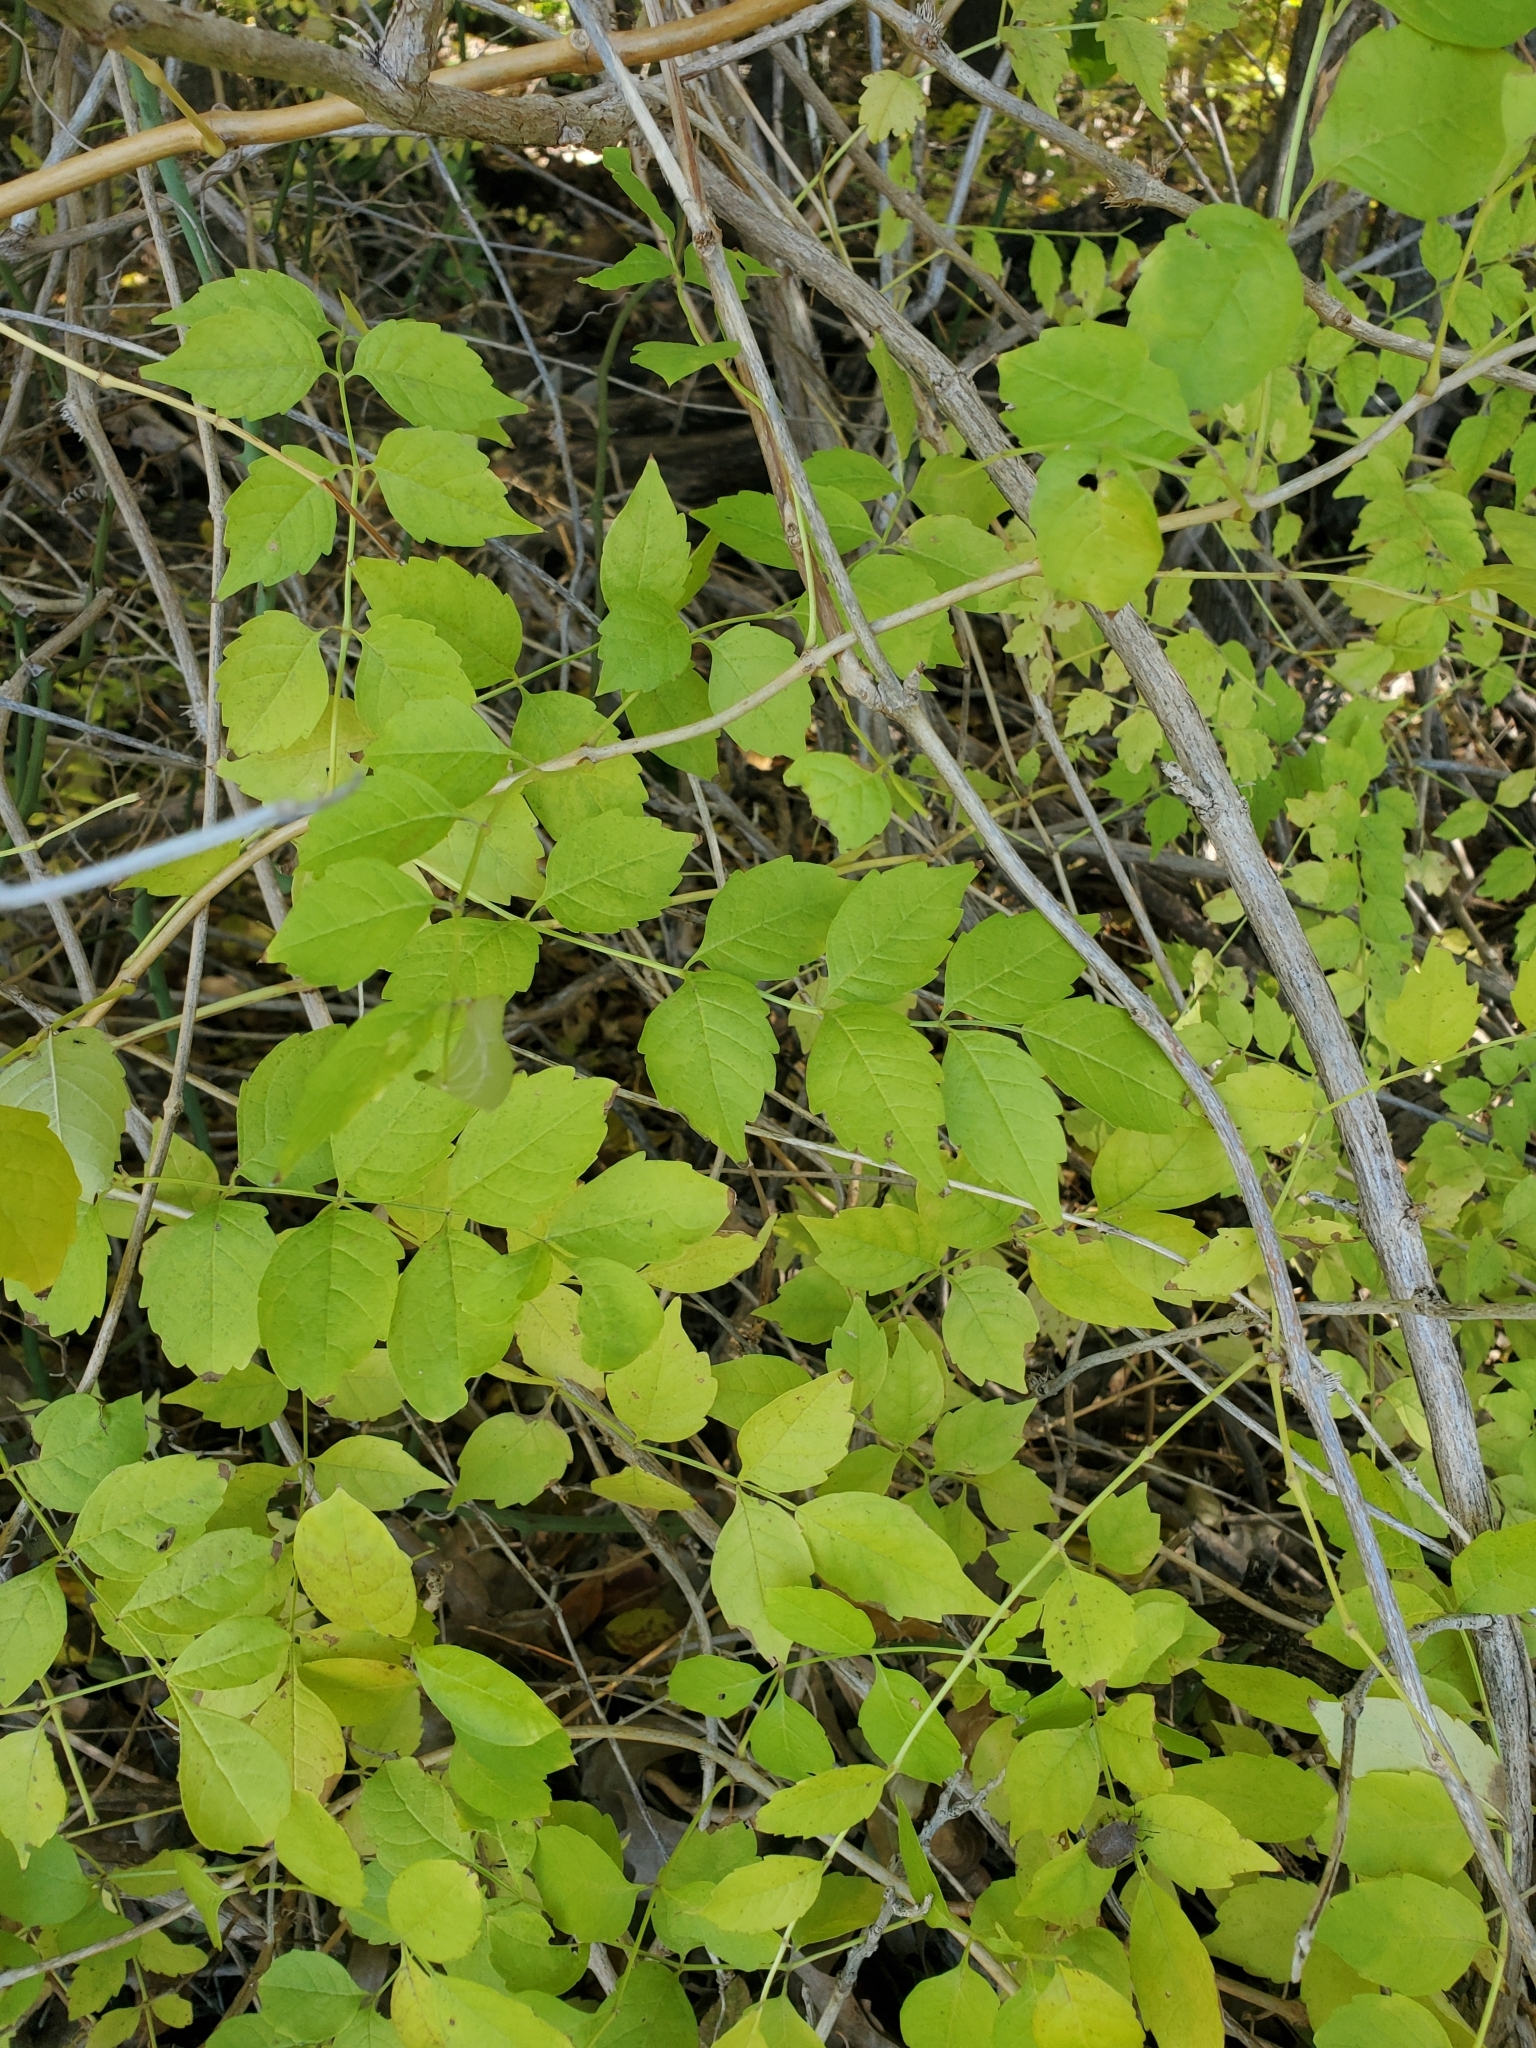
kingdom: Plantae
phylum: Tracheophyta
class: Magnoliopsida
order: Lamiales
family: Bignoniaceae
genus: Campsis
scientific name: Campsis radicans
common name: Trumpet-creeper
